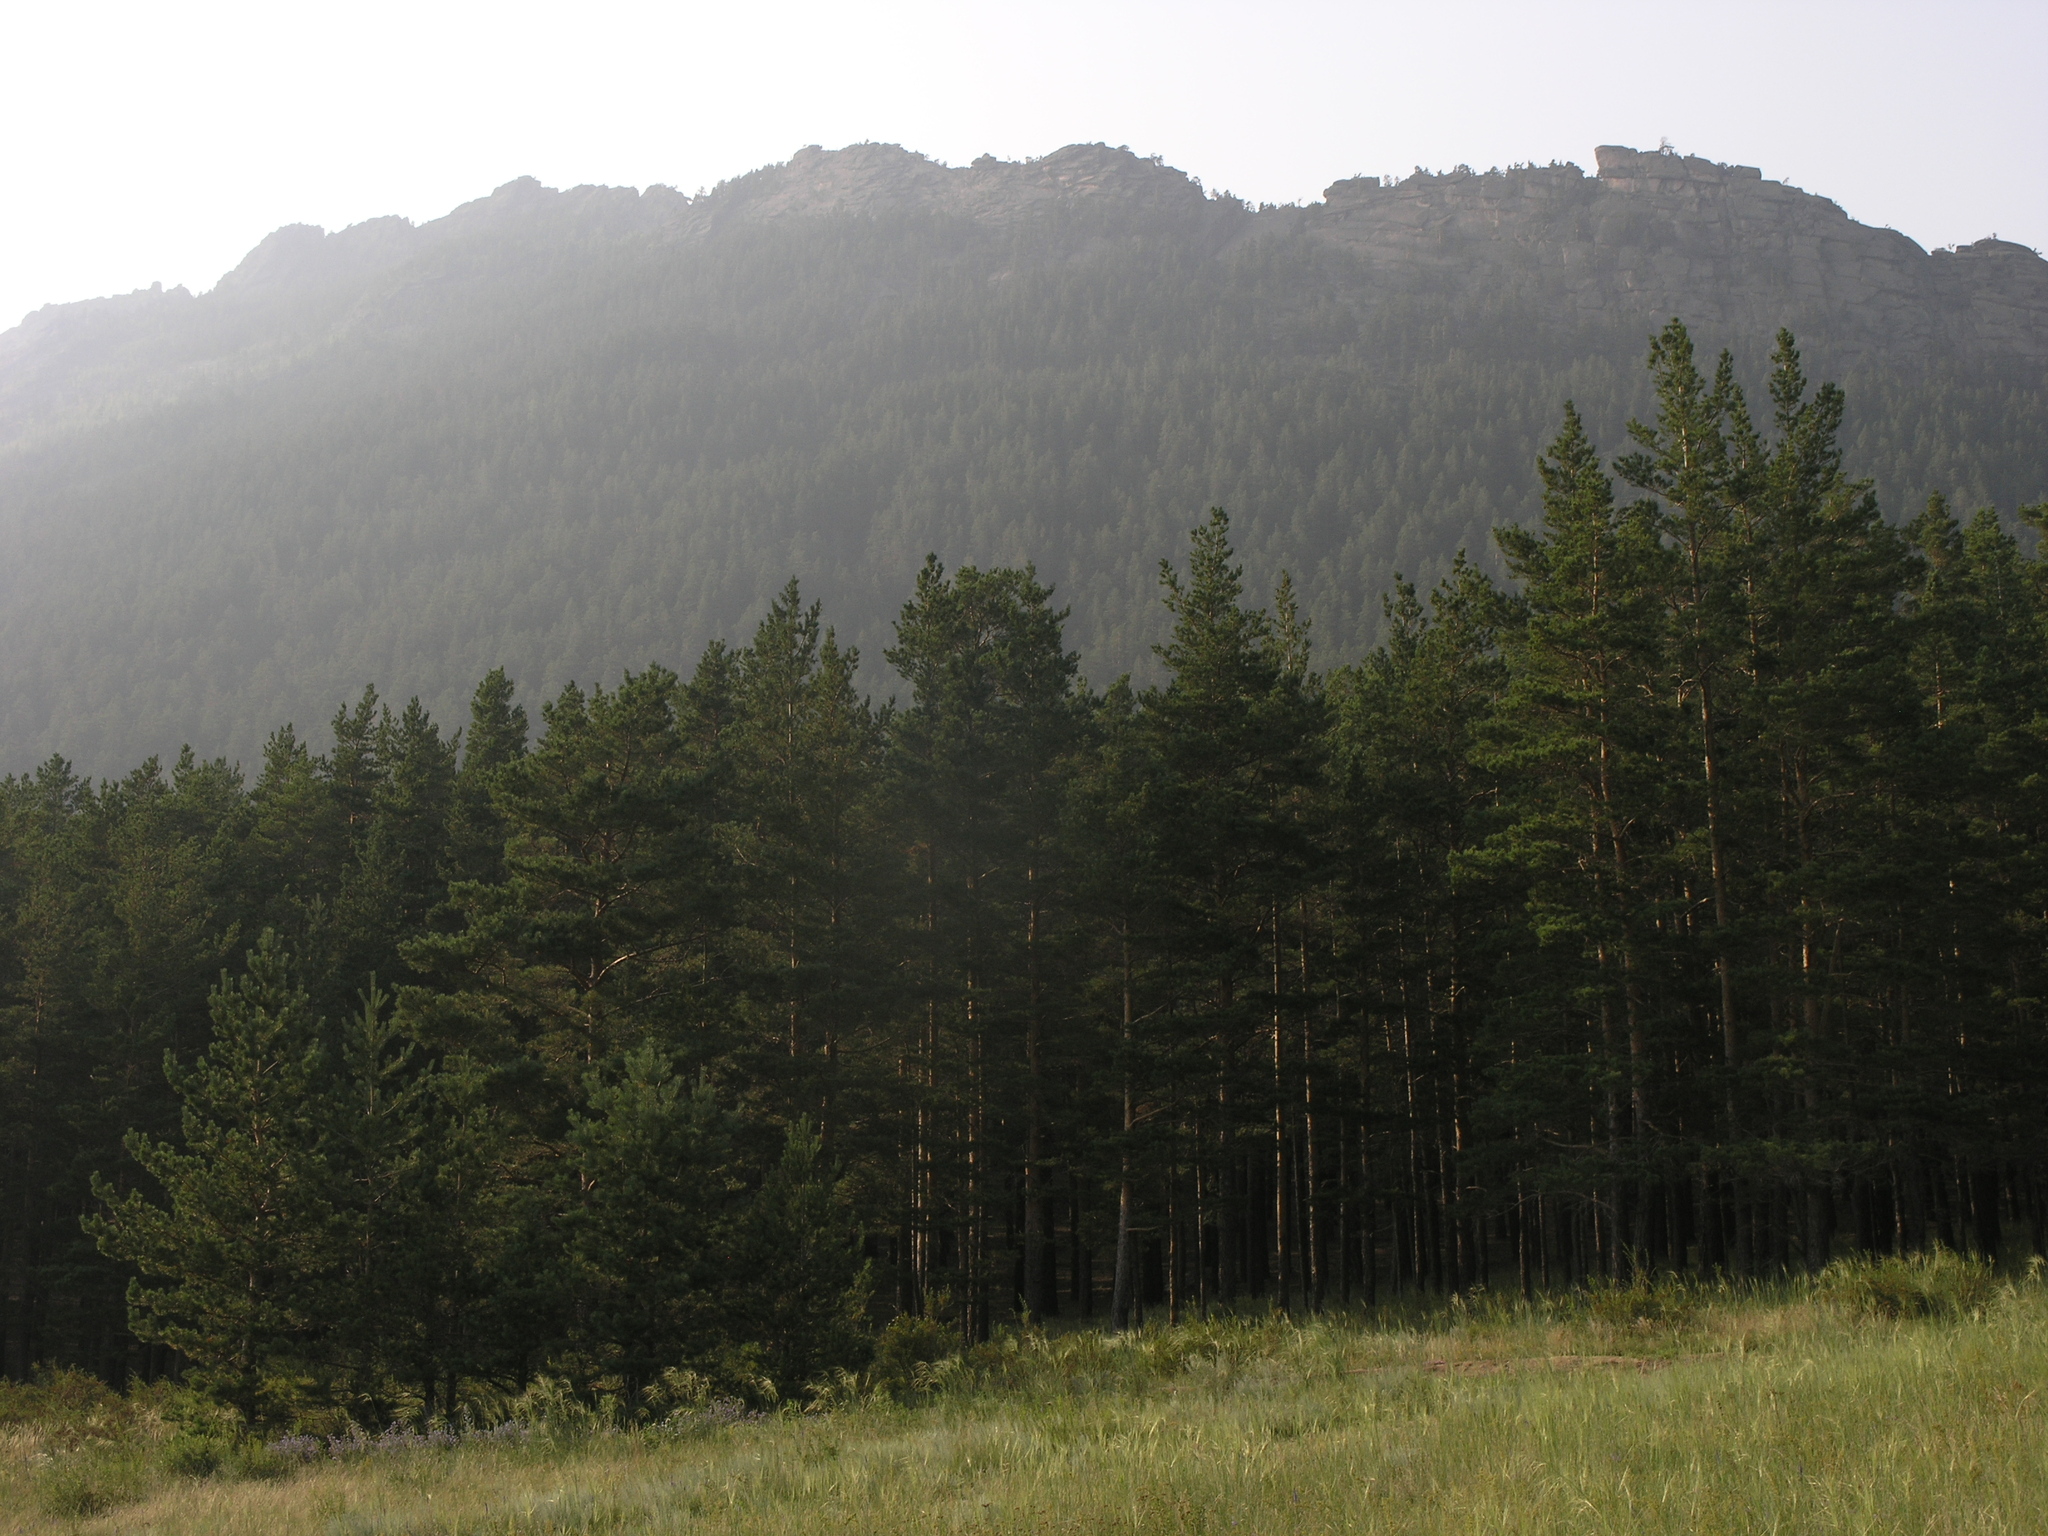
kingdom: Plantae
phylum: Tracheophyta
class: Pinopsida
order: Pinales
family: Pinaceae
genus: Pinus
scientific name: Pinus sylvestris
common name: Scots pine
